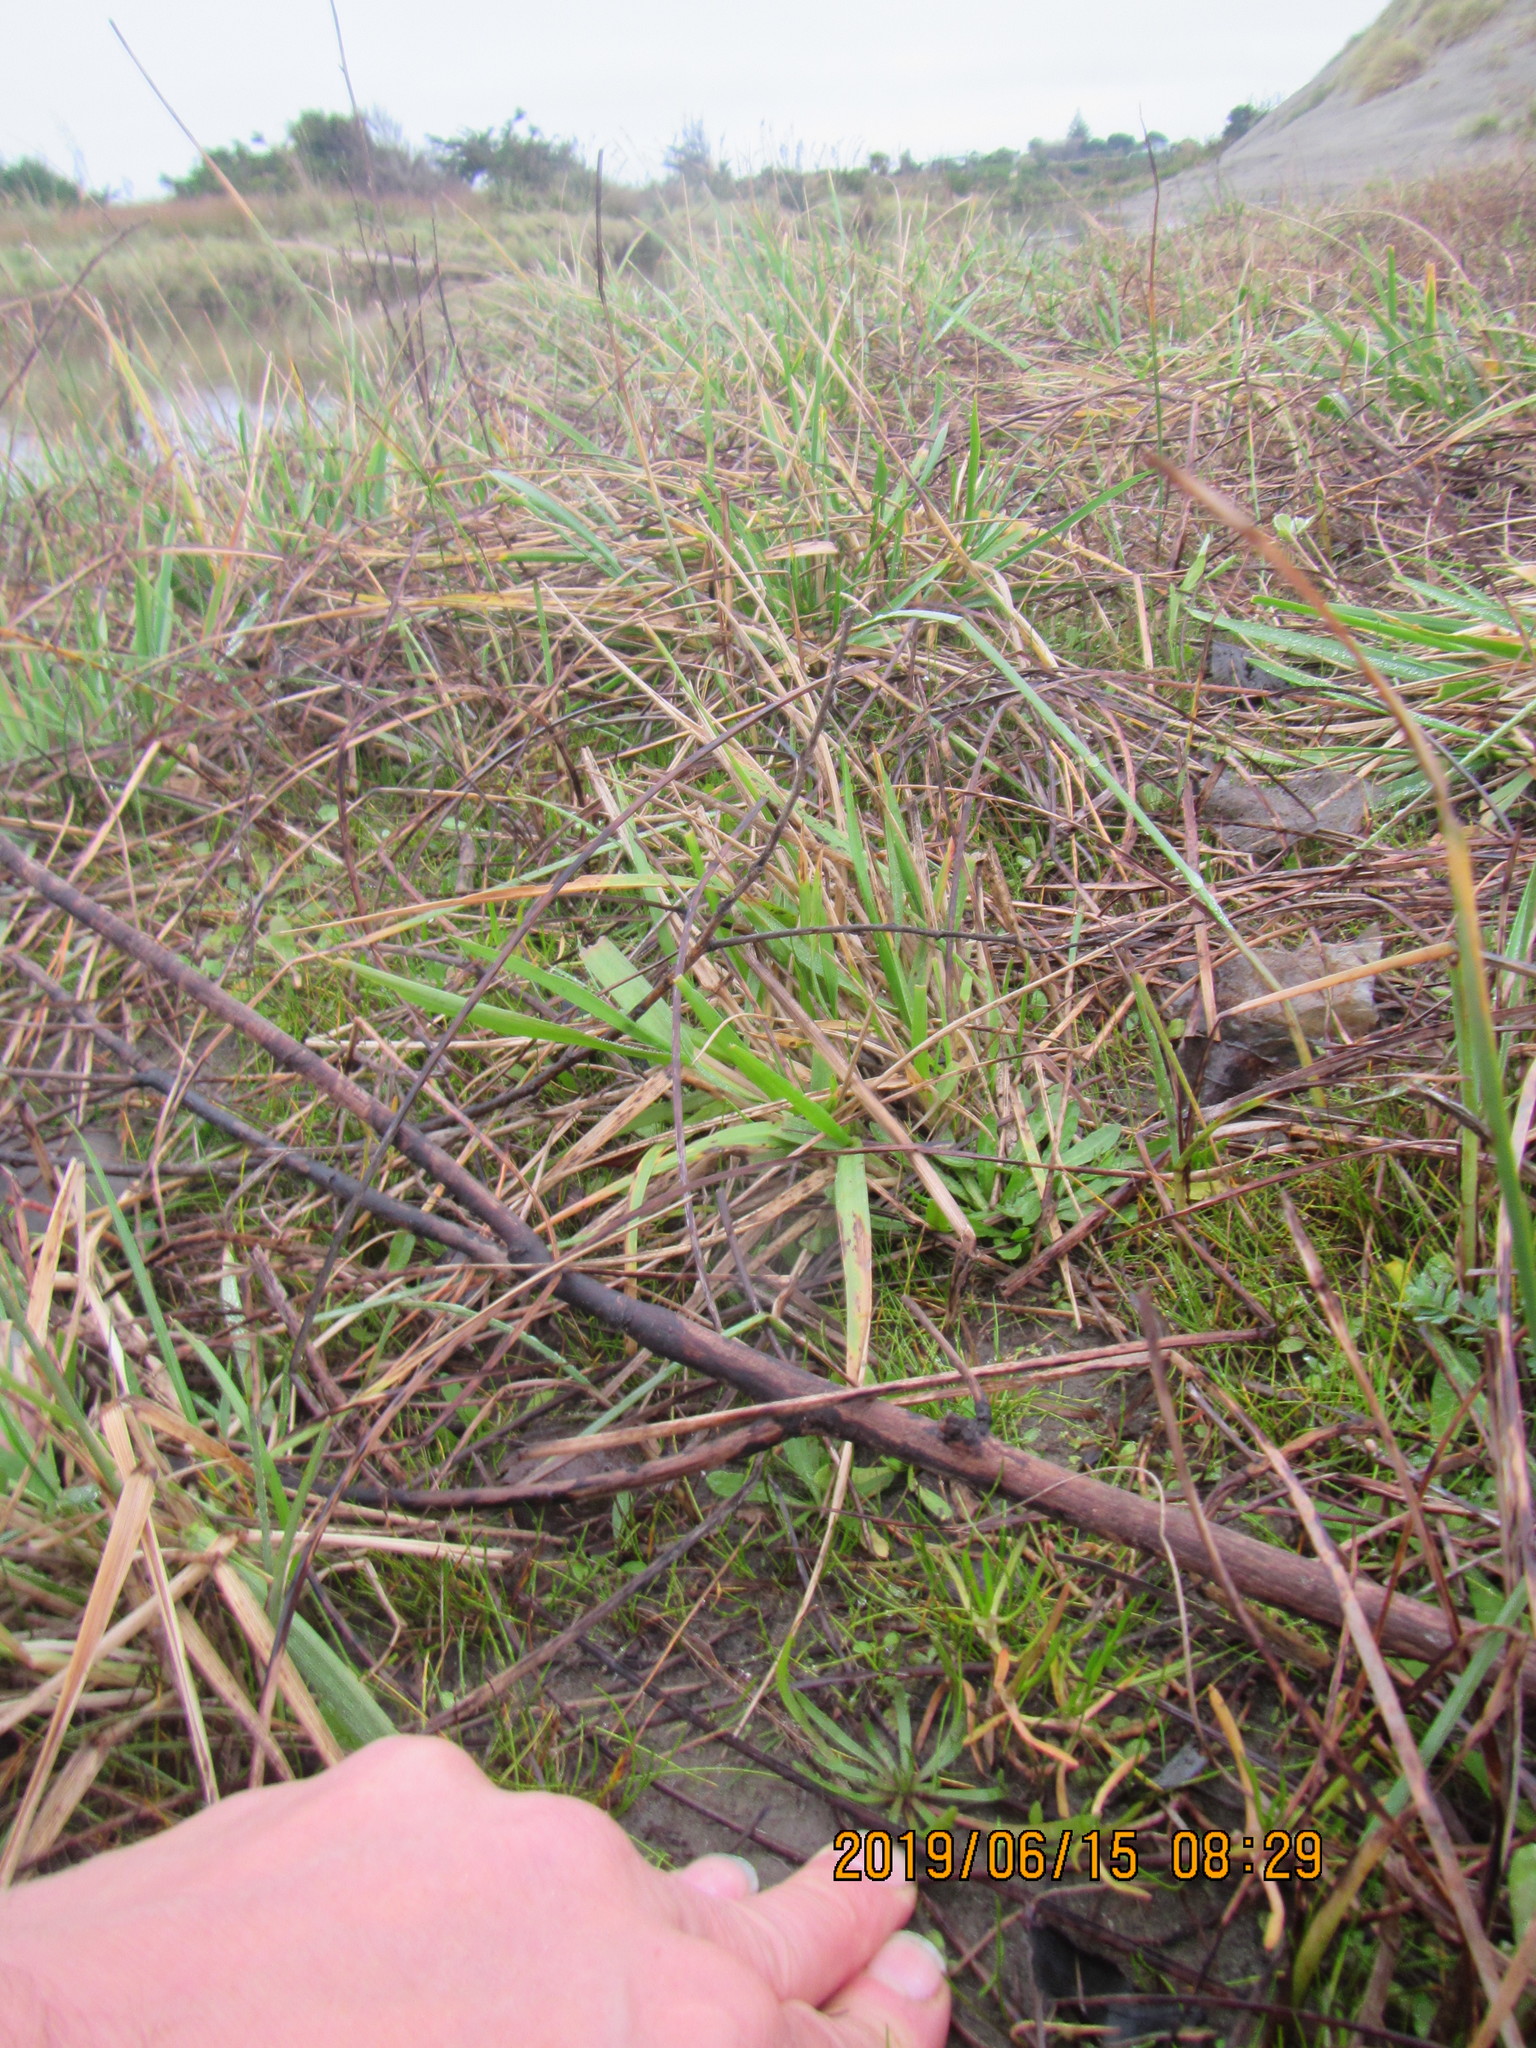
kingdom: Plantae
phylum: Tracheophyta
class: Magnoliopsida
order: Lamiales
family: Plantaginaceae
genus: Plantago
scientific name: Plantago coronopus
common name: Buck's-horn plantain
